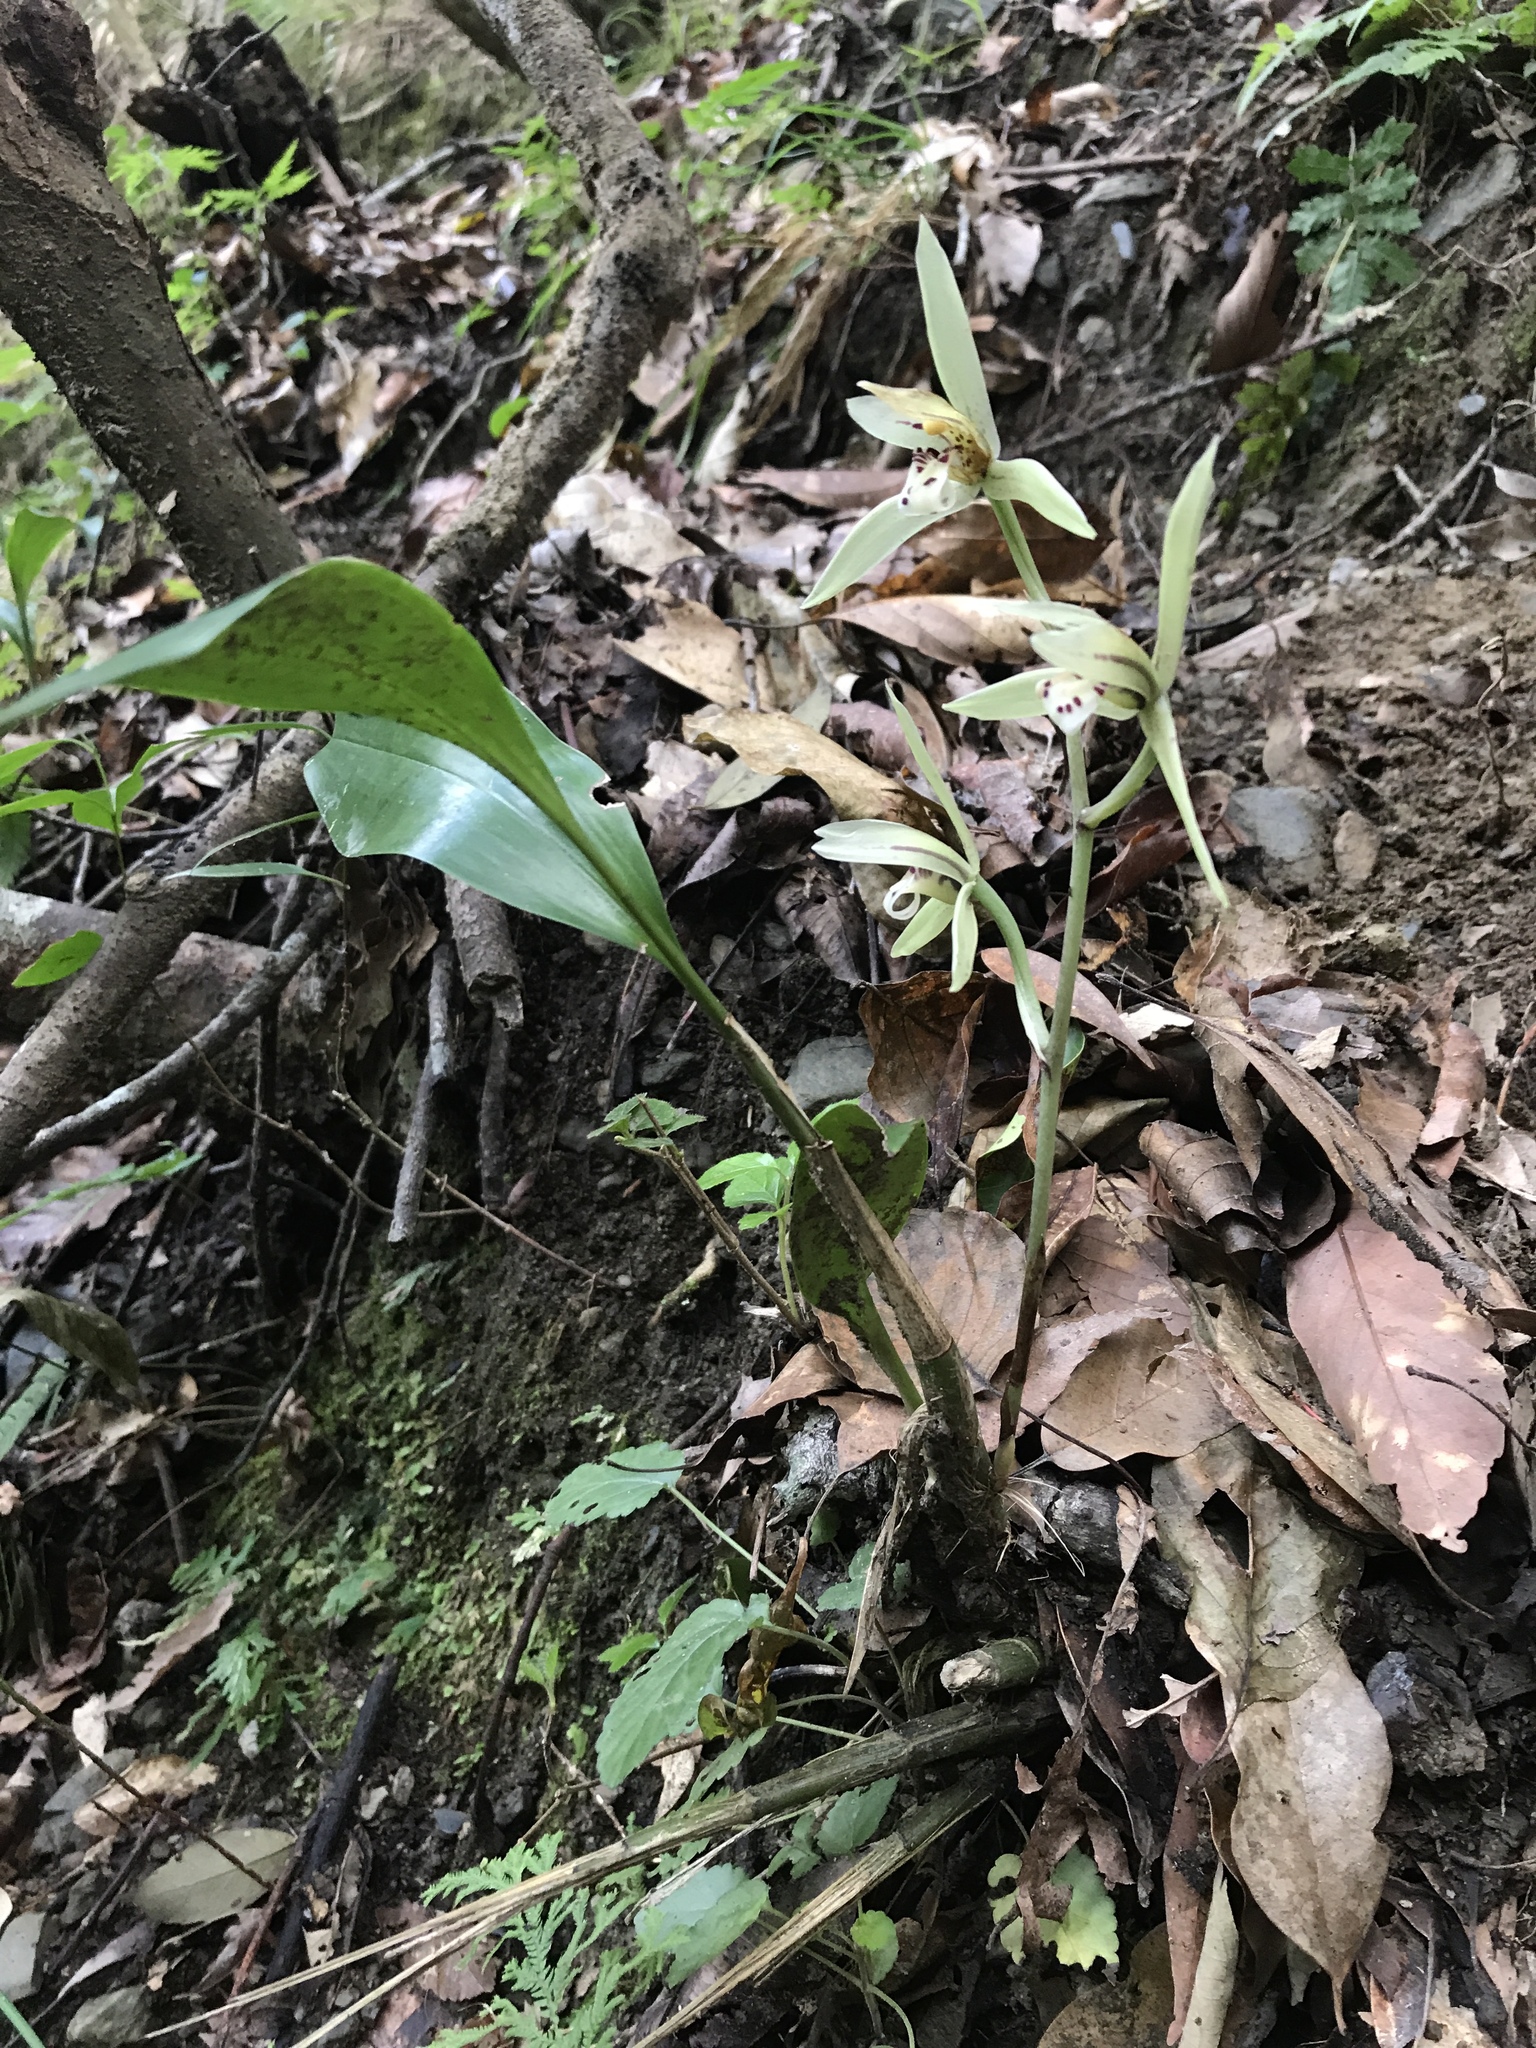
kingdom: Plantae
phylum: Tracheophyta
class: Liliopsida
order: Asparagales
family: Orchidaceae
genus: Cymbidium
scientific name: Cymbidium lancifolium
